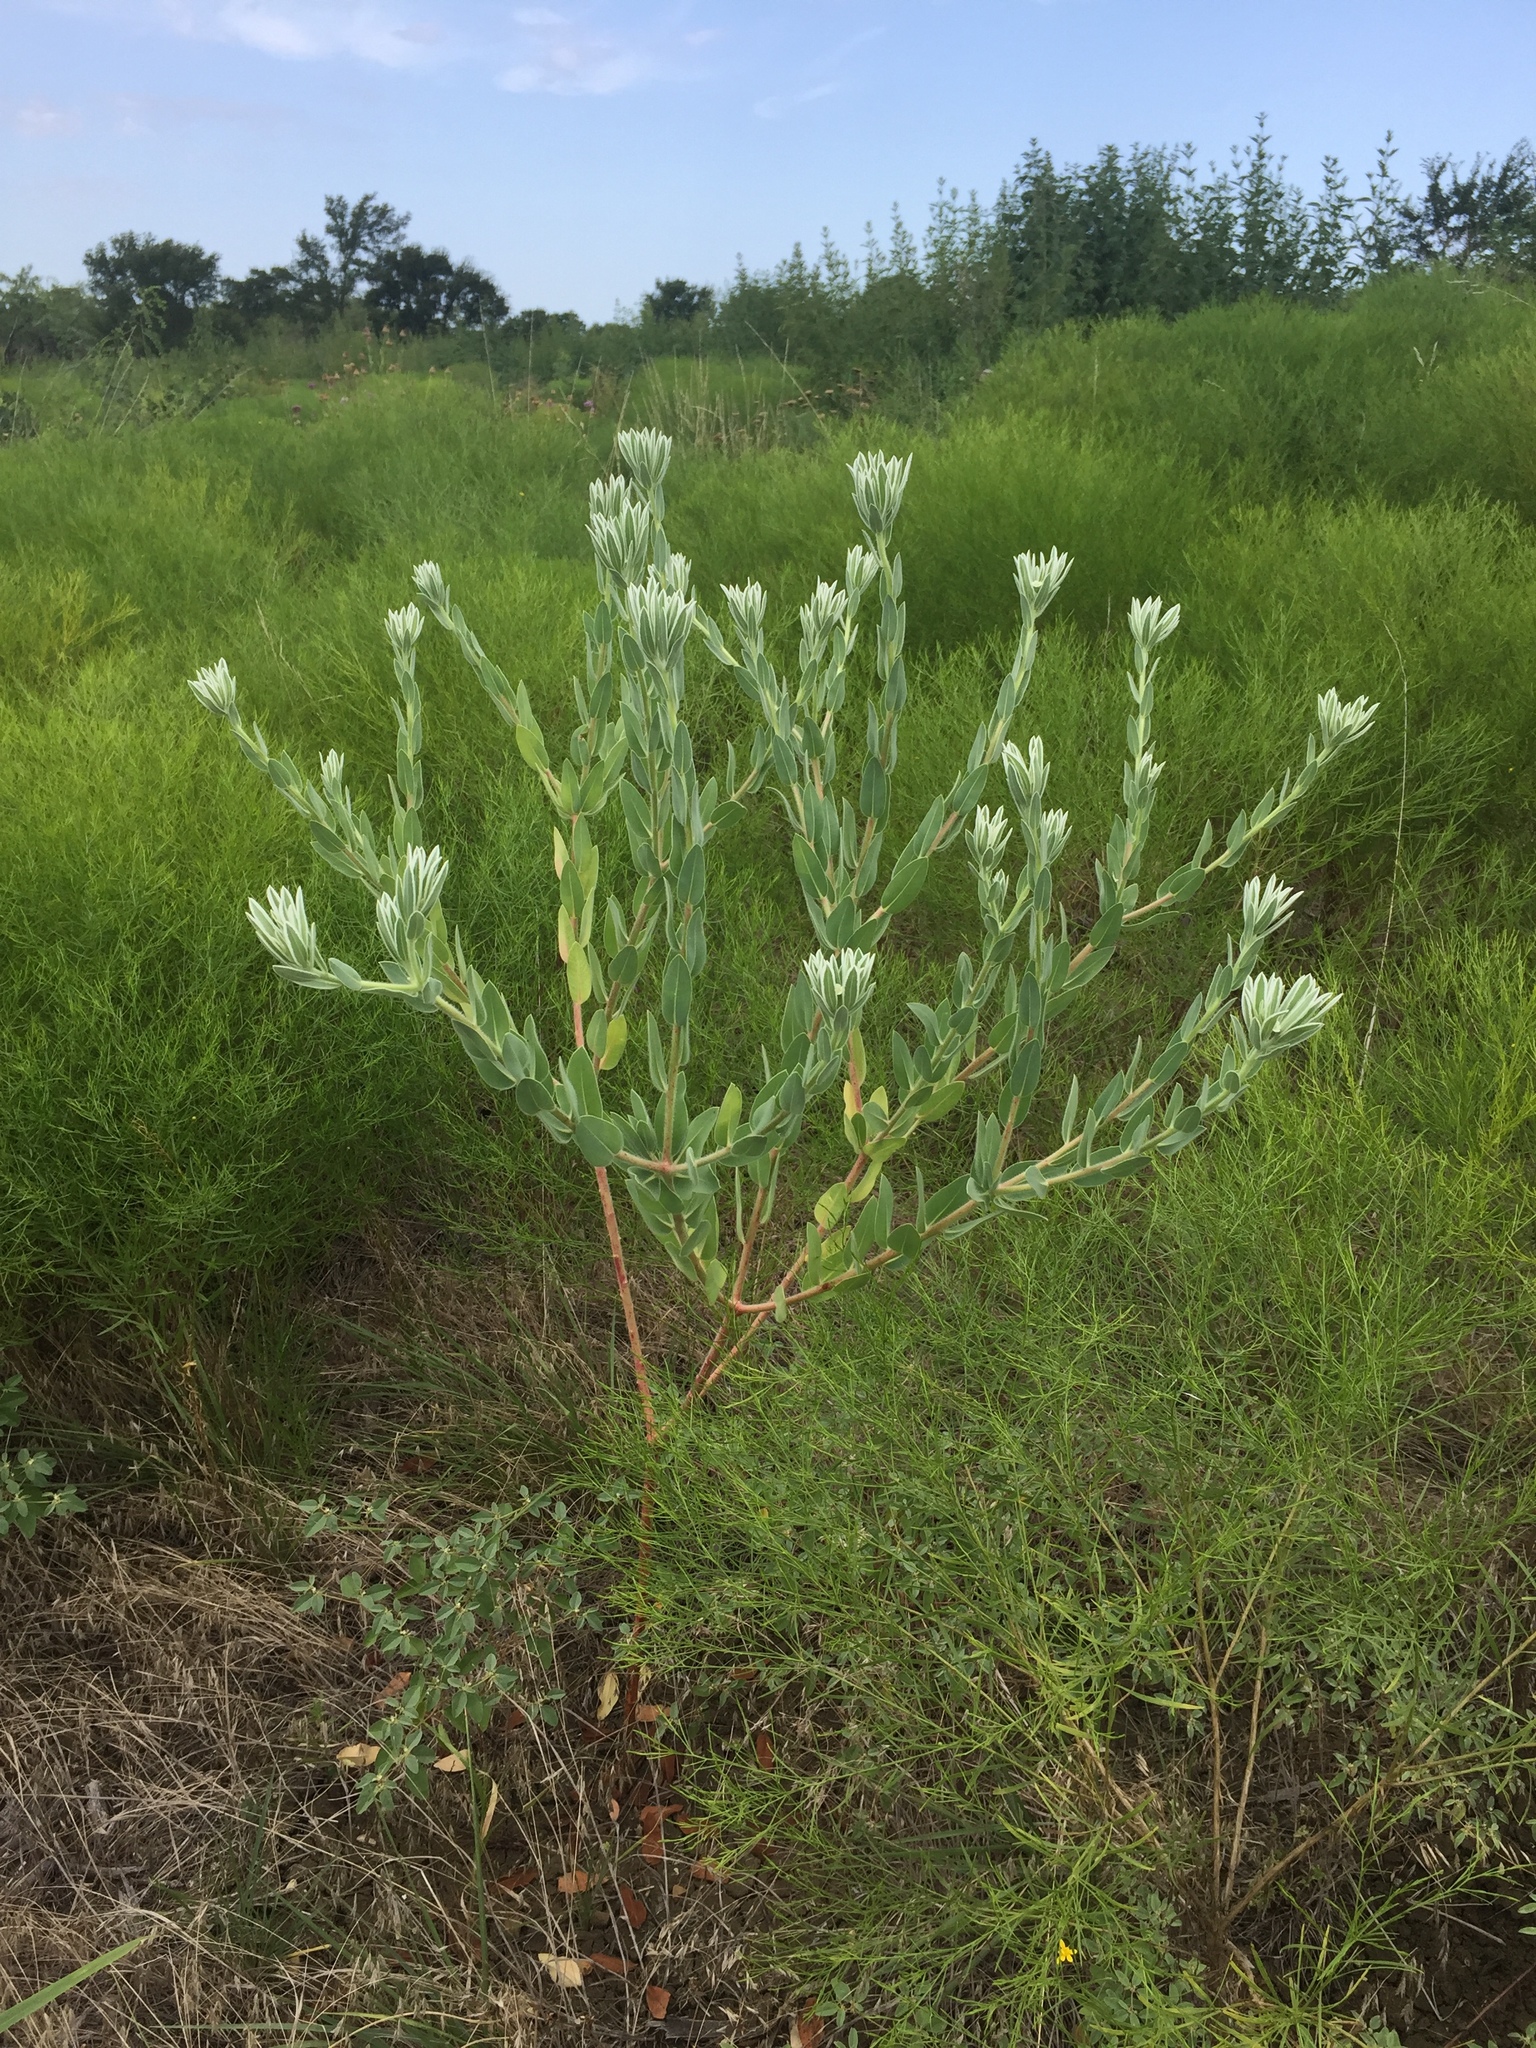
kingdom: Plantae
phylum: Tracheophyta
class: Magnoliopsida
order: Malpighiales
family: Euphorbiaceae
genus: Euphorbia
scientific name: Euphorbia bicolor
